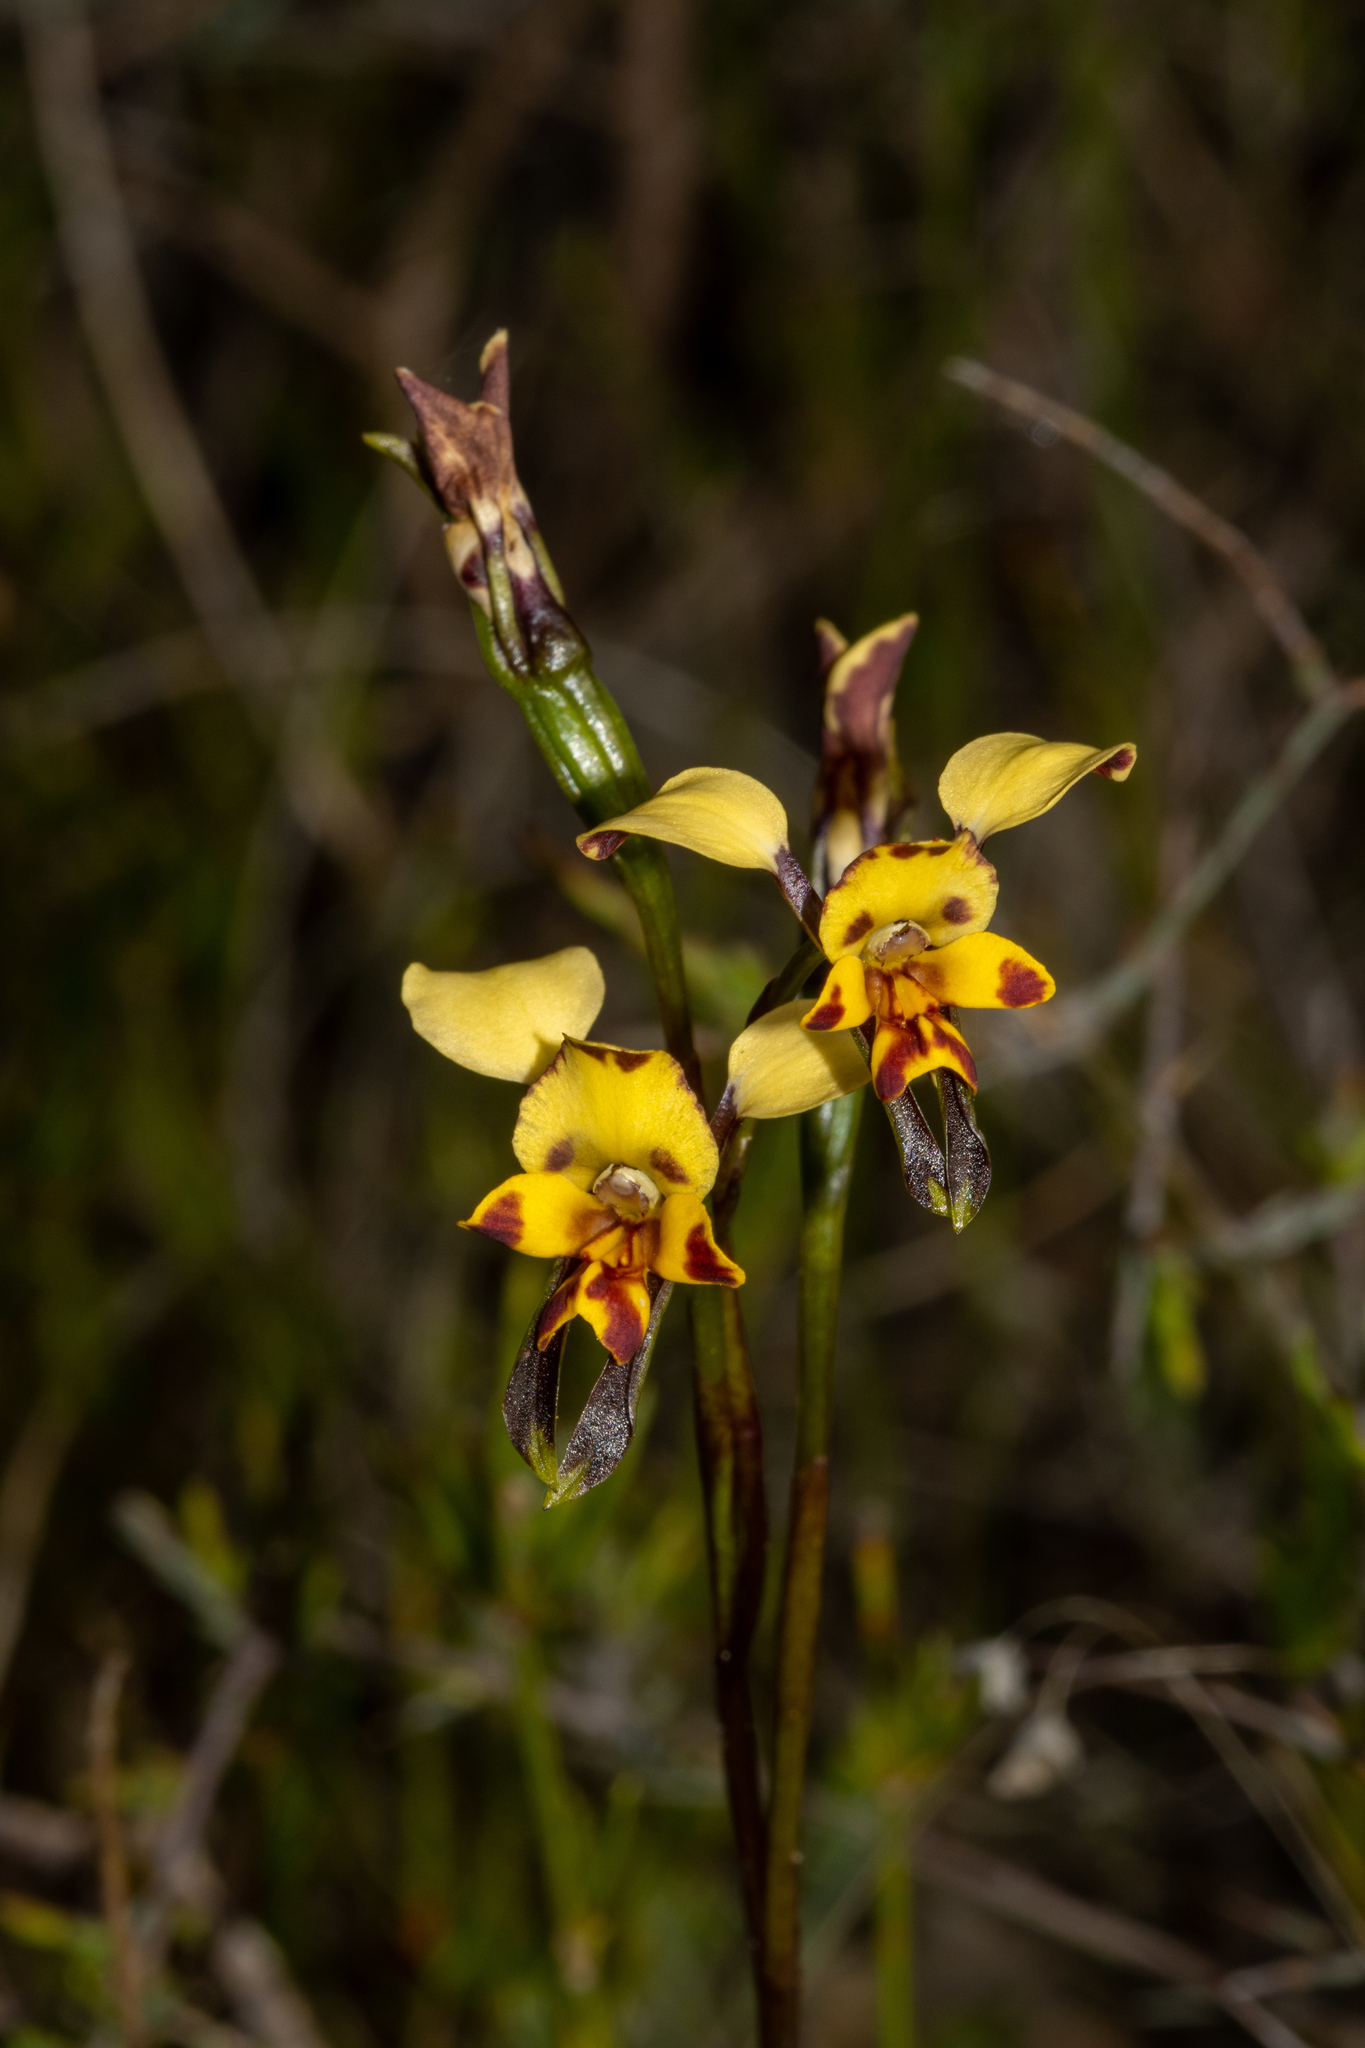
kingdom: Plantae
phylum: Tracheophyta
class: Liliopsida
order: Asparagales
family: Orchidaceae
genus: Diuris
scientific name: Diuris pardina
